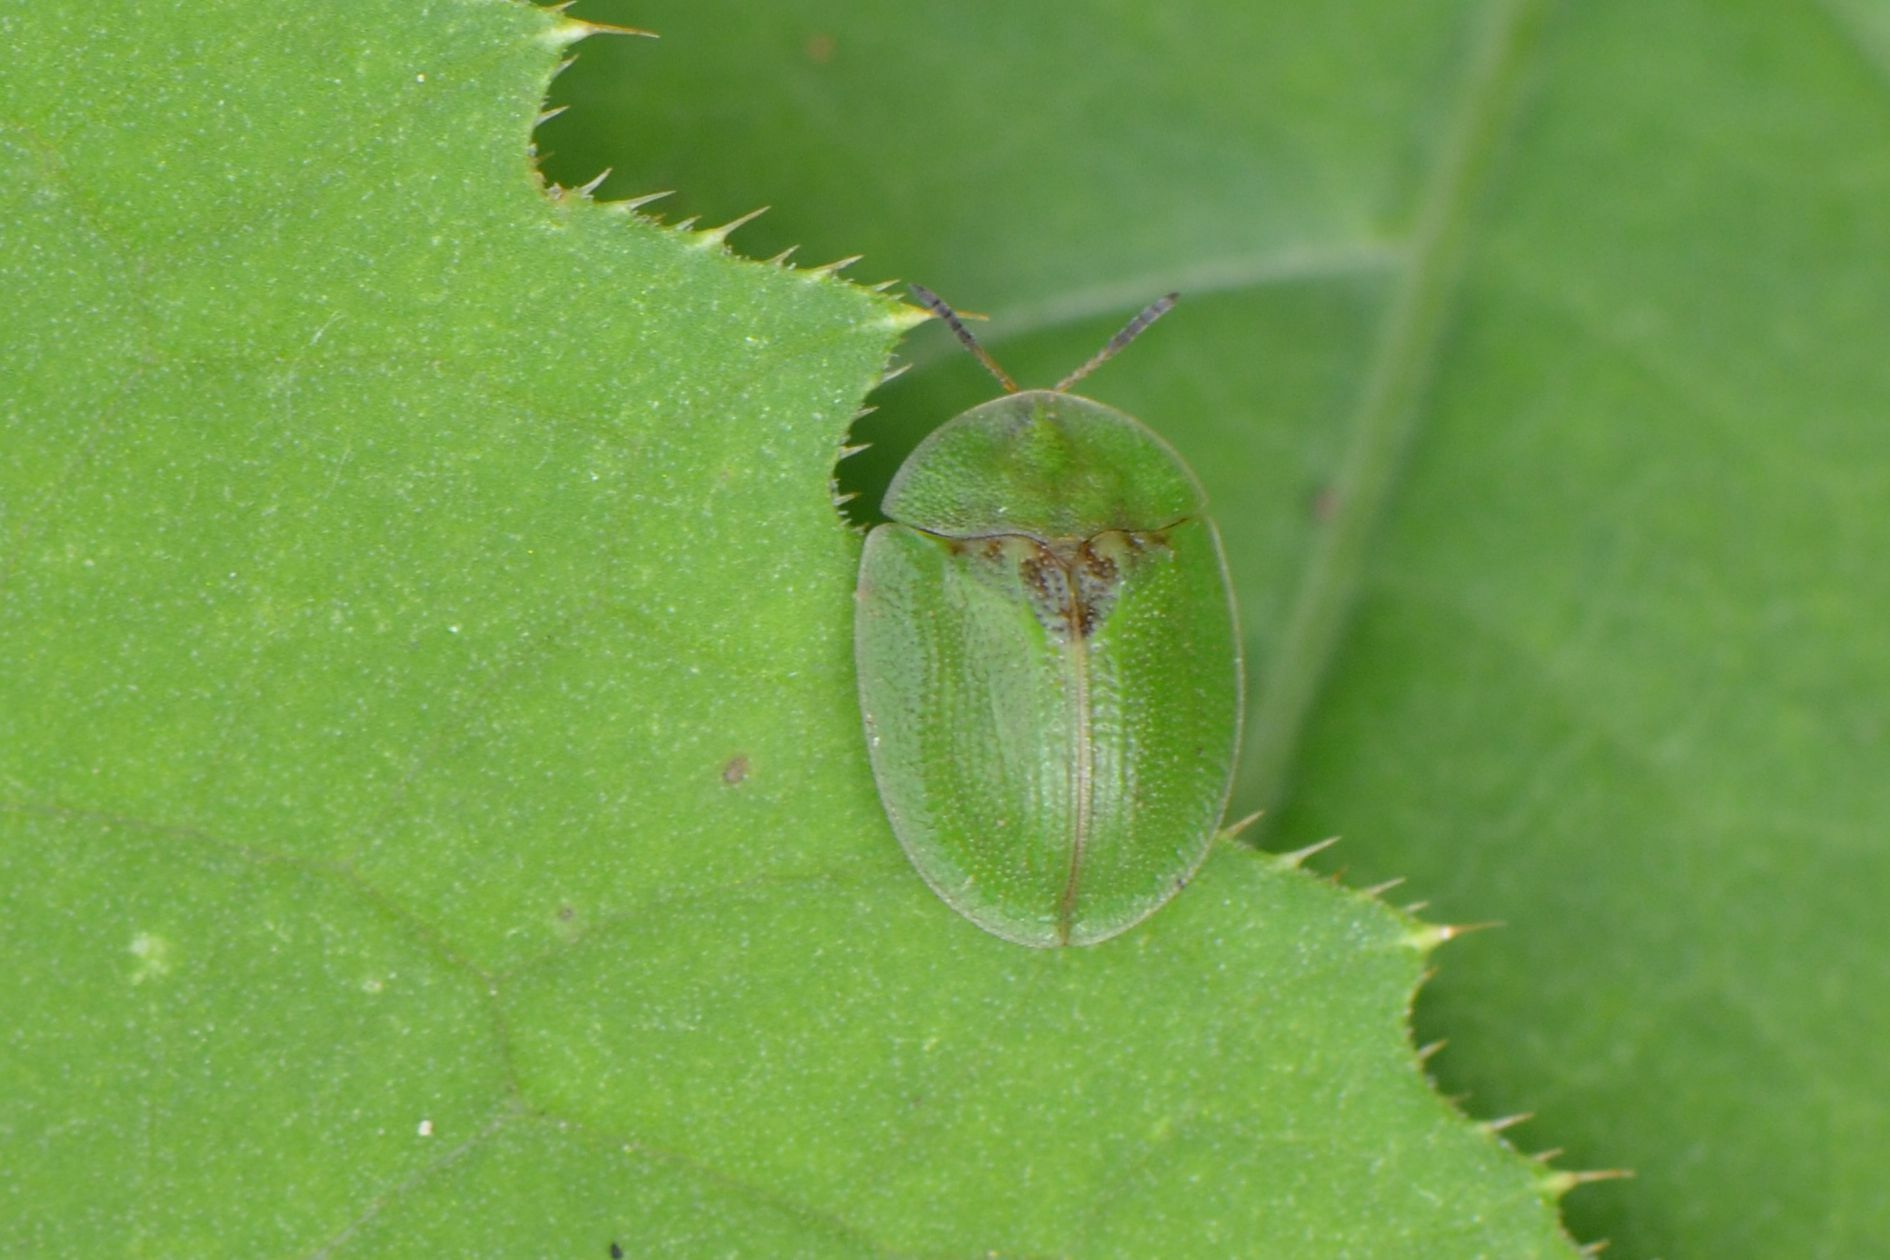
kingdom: Animalia
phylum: Arthropoda
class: Insecta
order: Coleoptera
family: Chrysomelidae
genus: Cassida
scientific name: Cassida rubiginosa
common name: Thistle tortoise beetle
